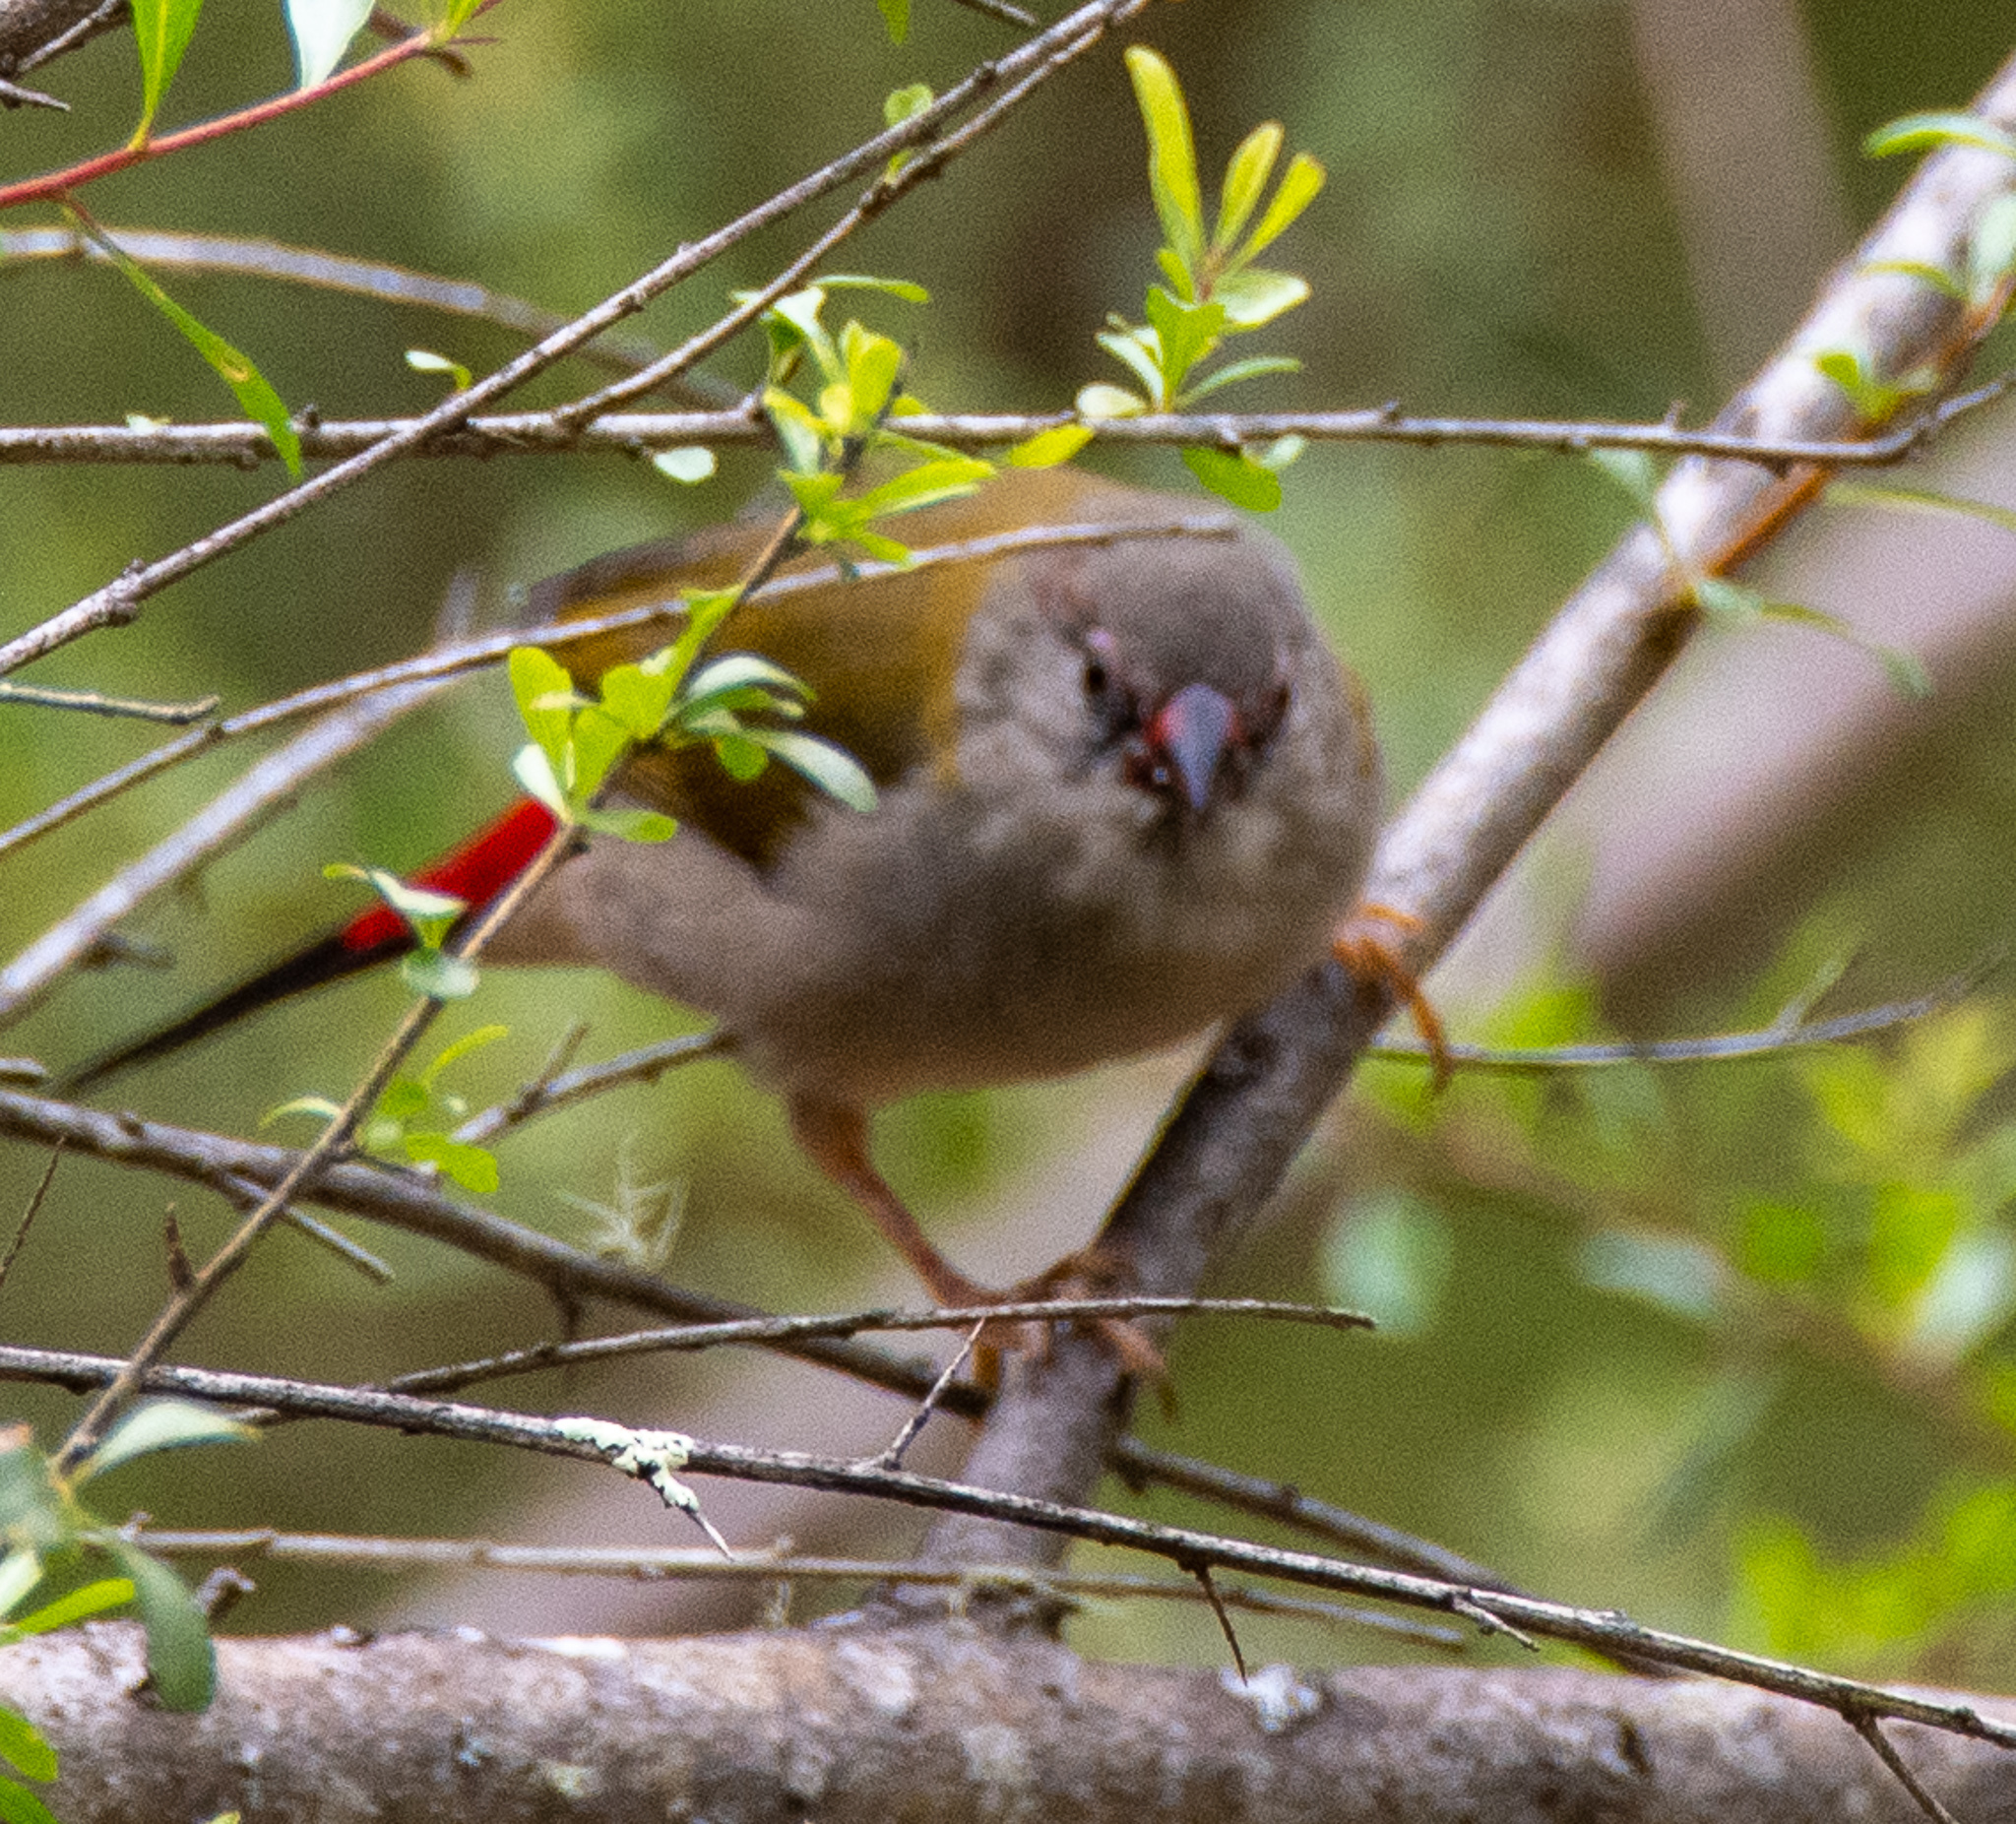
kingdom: Animalia
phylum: Chordata
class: Aves
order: Passeriformes
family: Estrildidae
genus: Neochmia
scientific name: Neochmia temporalis
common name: Red-browed finch
